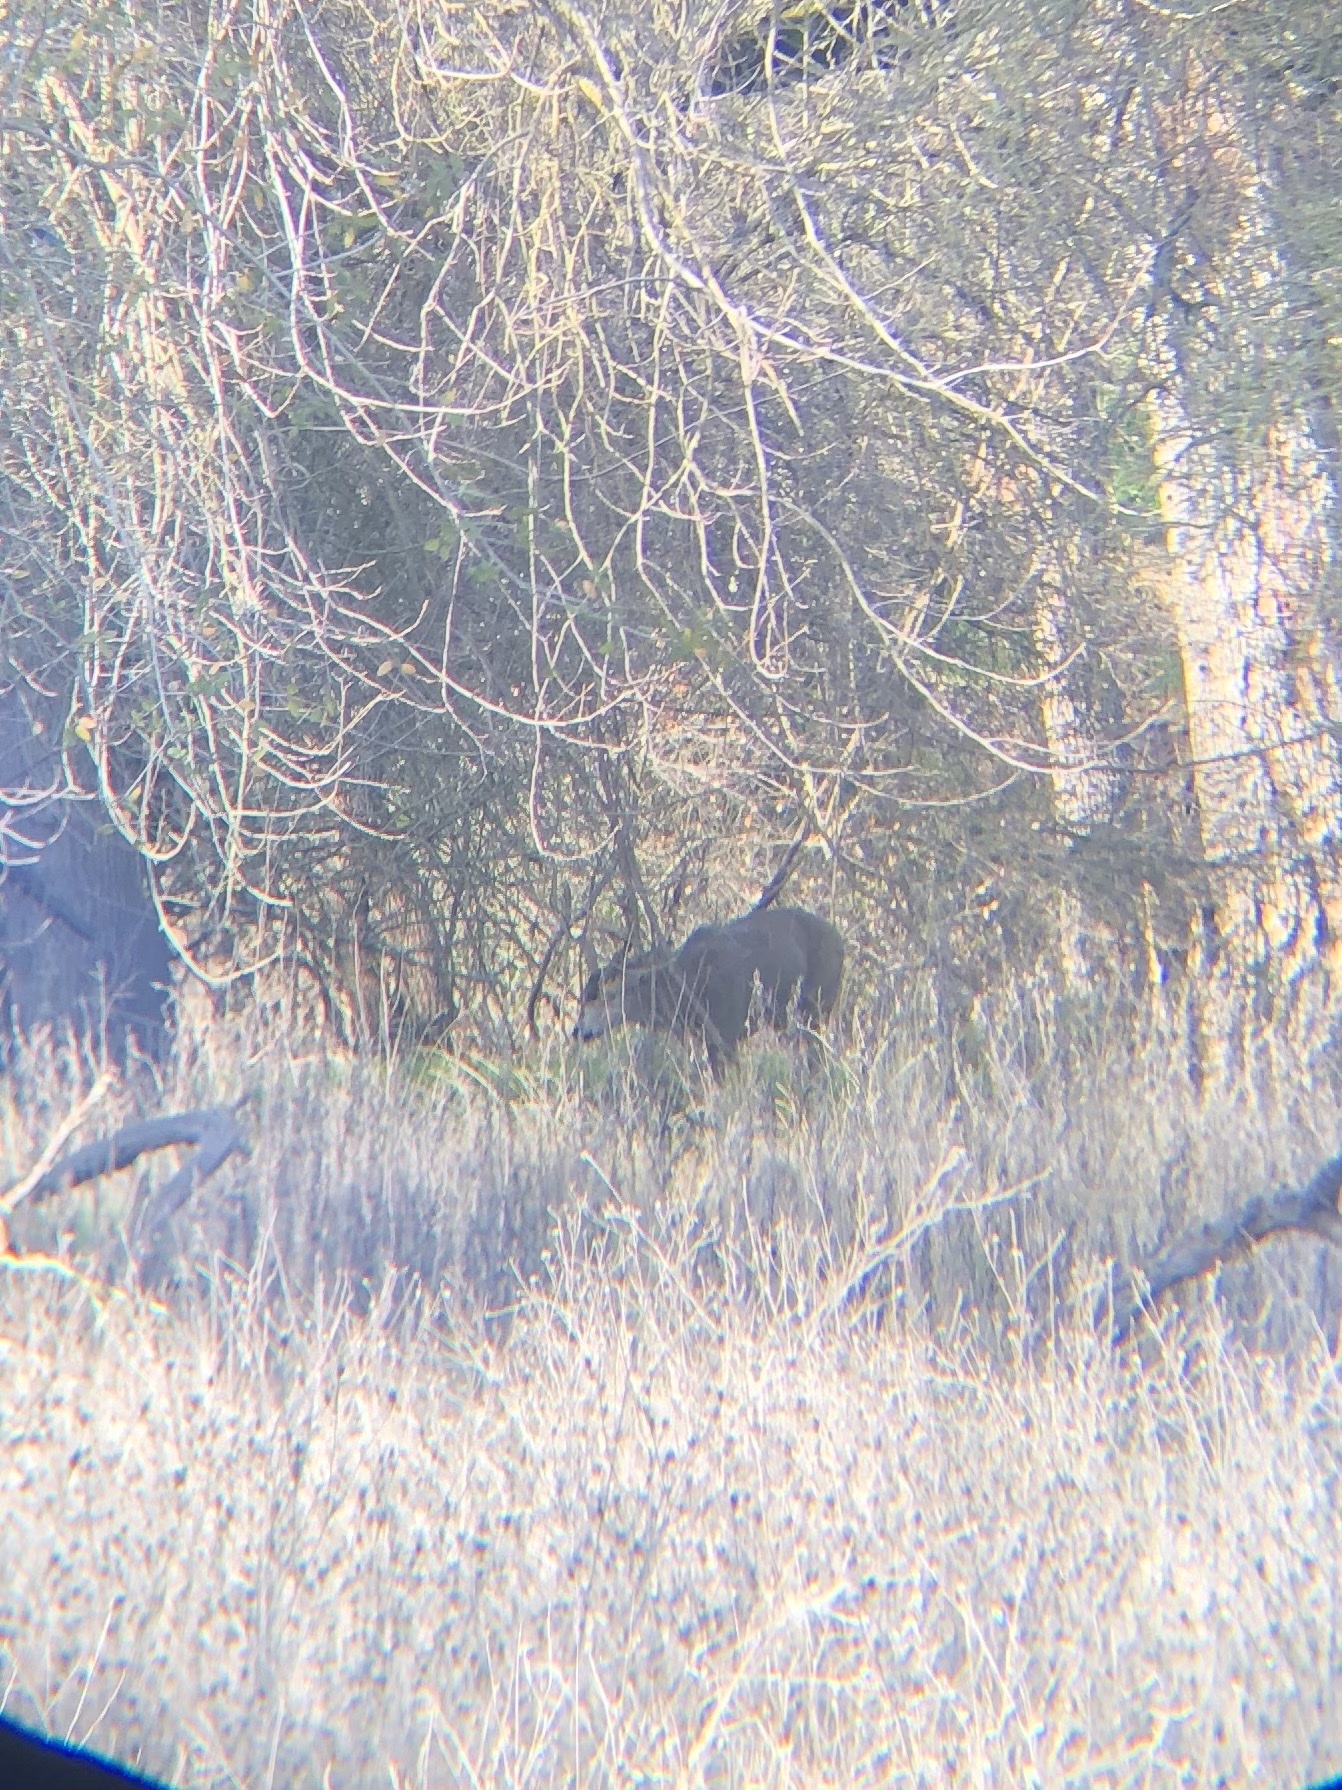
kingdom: Animalia
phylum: Chordata
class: Mammalia
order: Artiodactyla
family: Cervidae
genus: Odocoileus
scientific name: Odocoileus hemionus
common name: Mule deer
